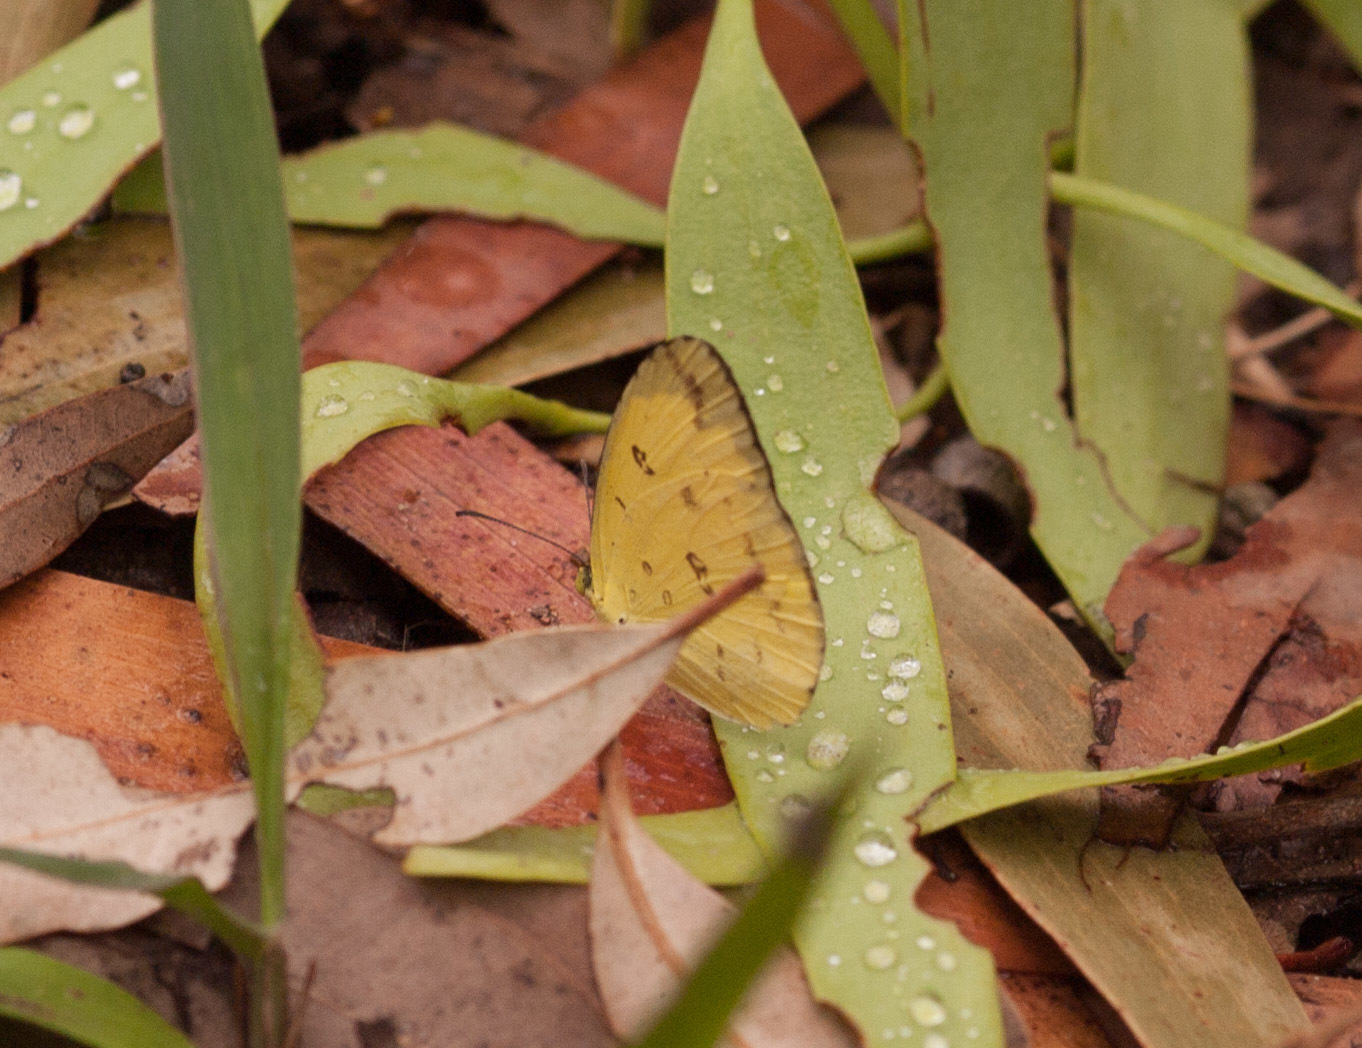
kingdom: Animalia
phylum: Arthropoda
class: Insecta
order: Lepidoptera
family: Pieridae
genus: Eurema
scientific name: Eurema hecabe
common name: Pale grass yellow
